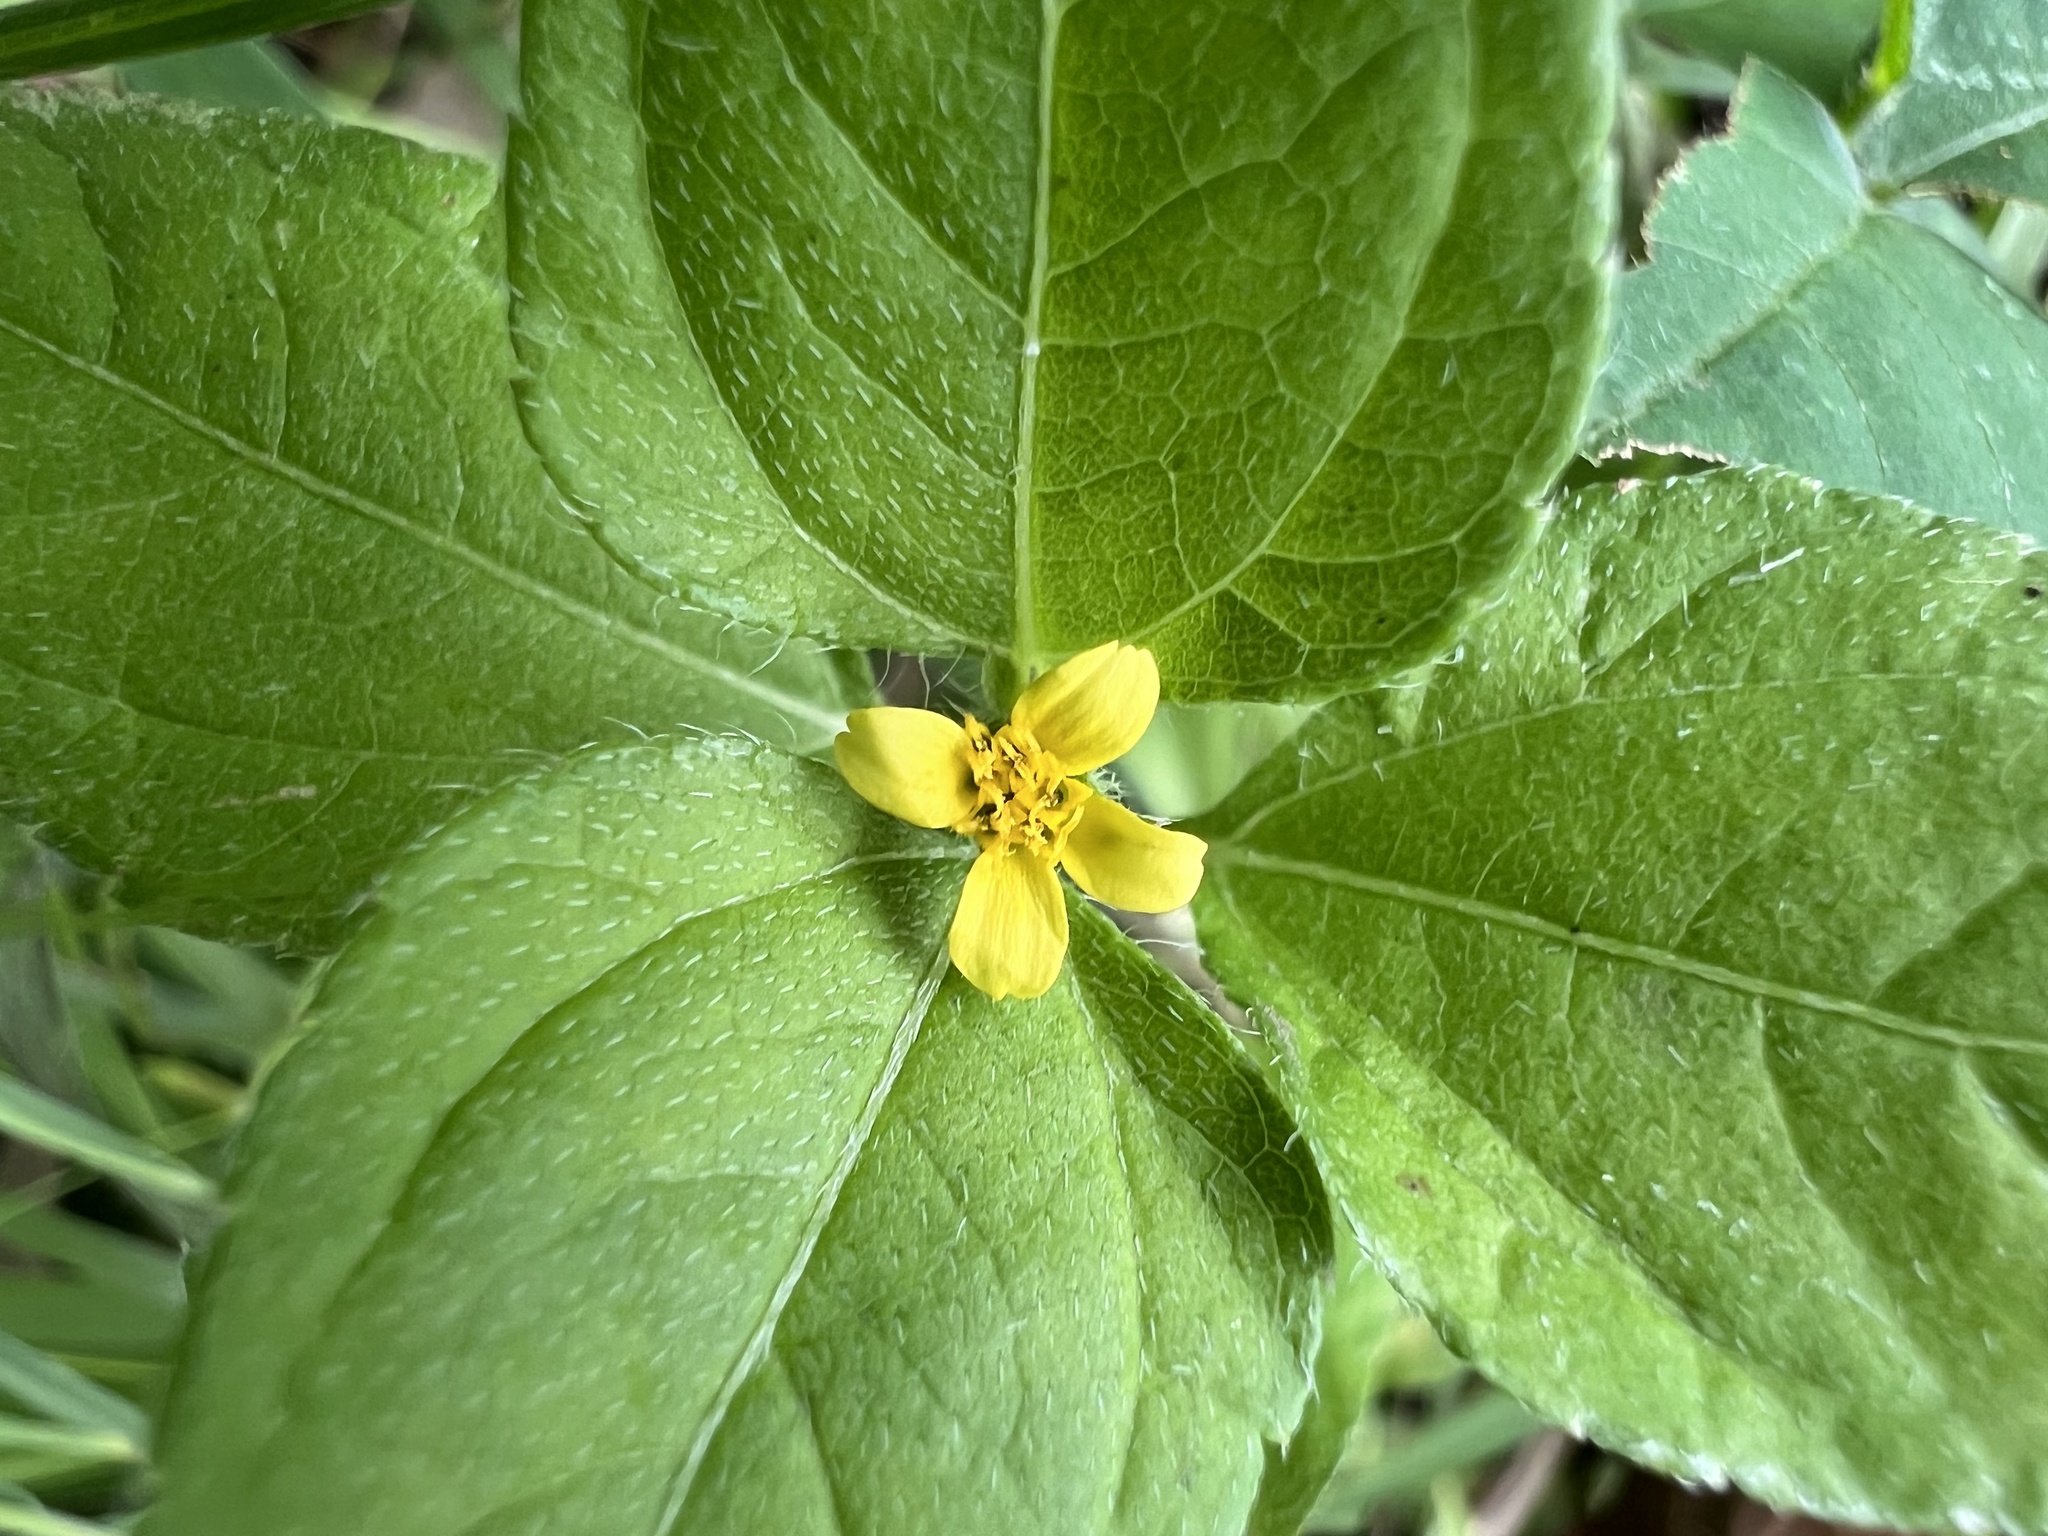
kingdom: Plantae
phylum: Tracheophyta
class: Magnoliopsida
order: Asterales
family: Asteraceae
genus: Calyptocarpus
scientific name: Calyptocarpus vialis
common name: Straggler daisy
